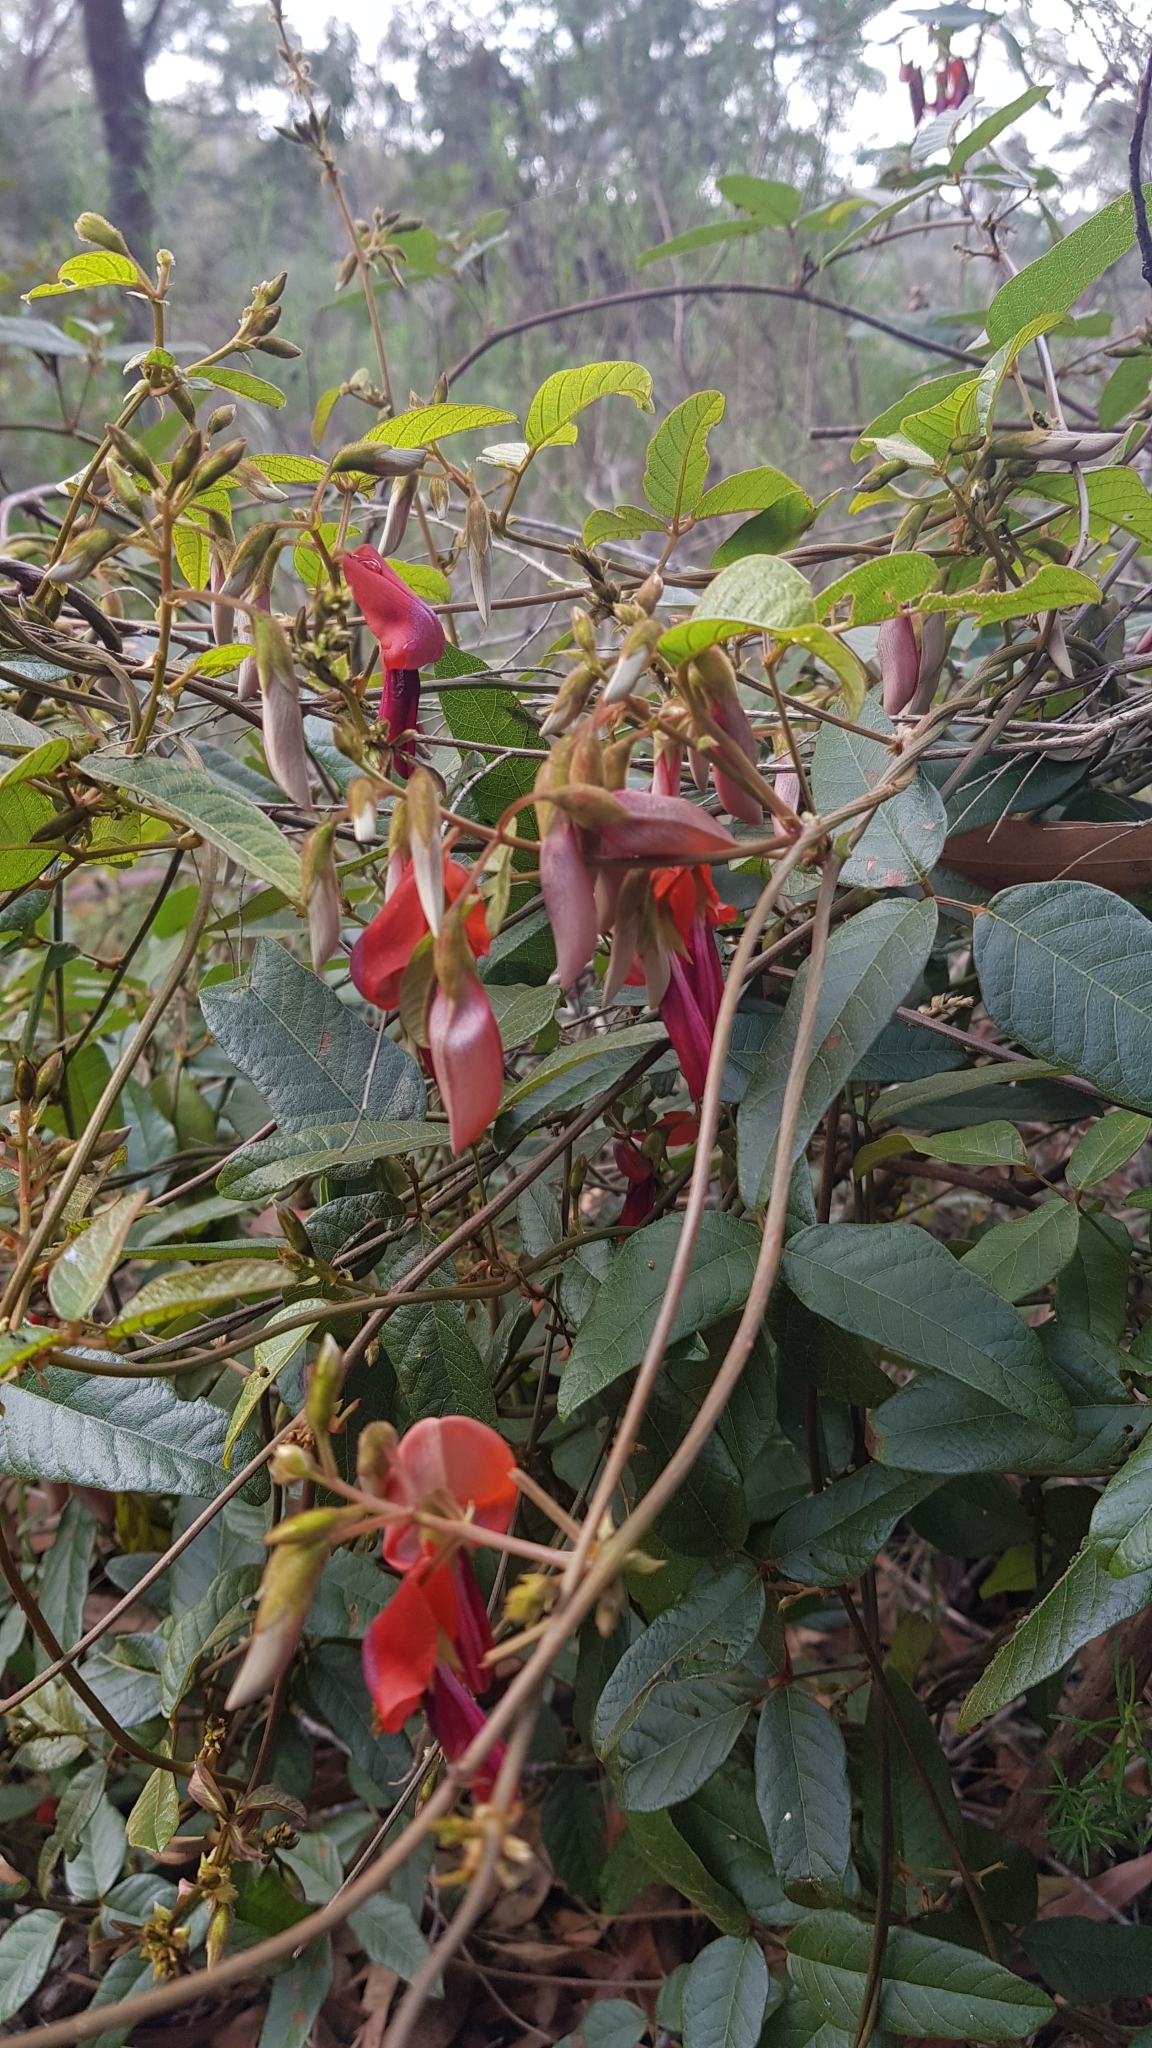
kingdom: Plantae
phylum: Tracheophyta
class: Magnoliopsida
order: Fabales
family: Fabaceae
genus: Kennedia
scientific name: Kennedia rubicunda
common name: Red kennedy-pea
